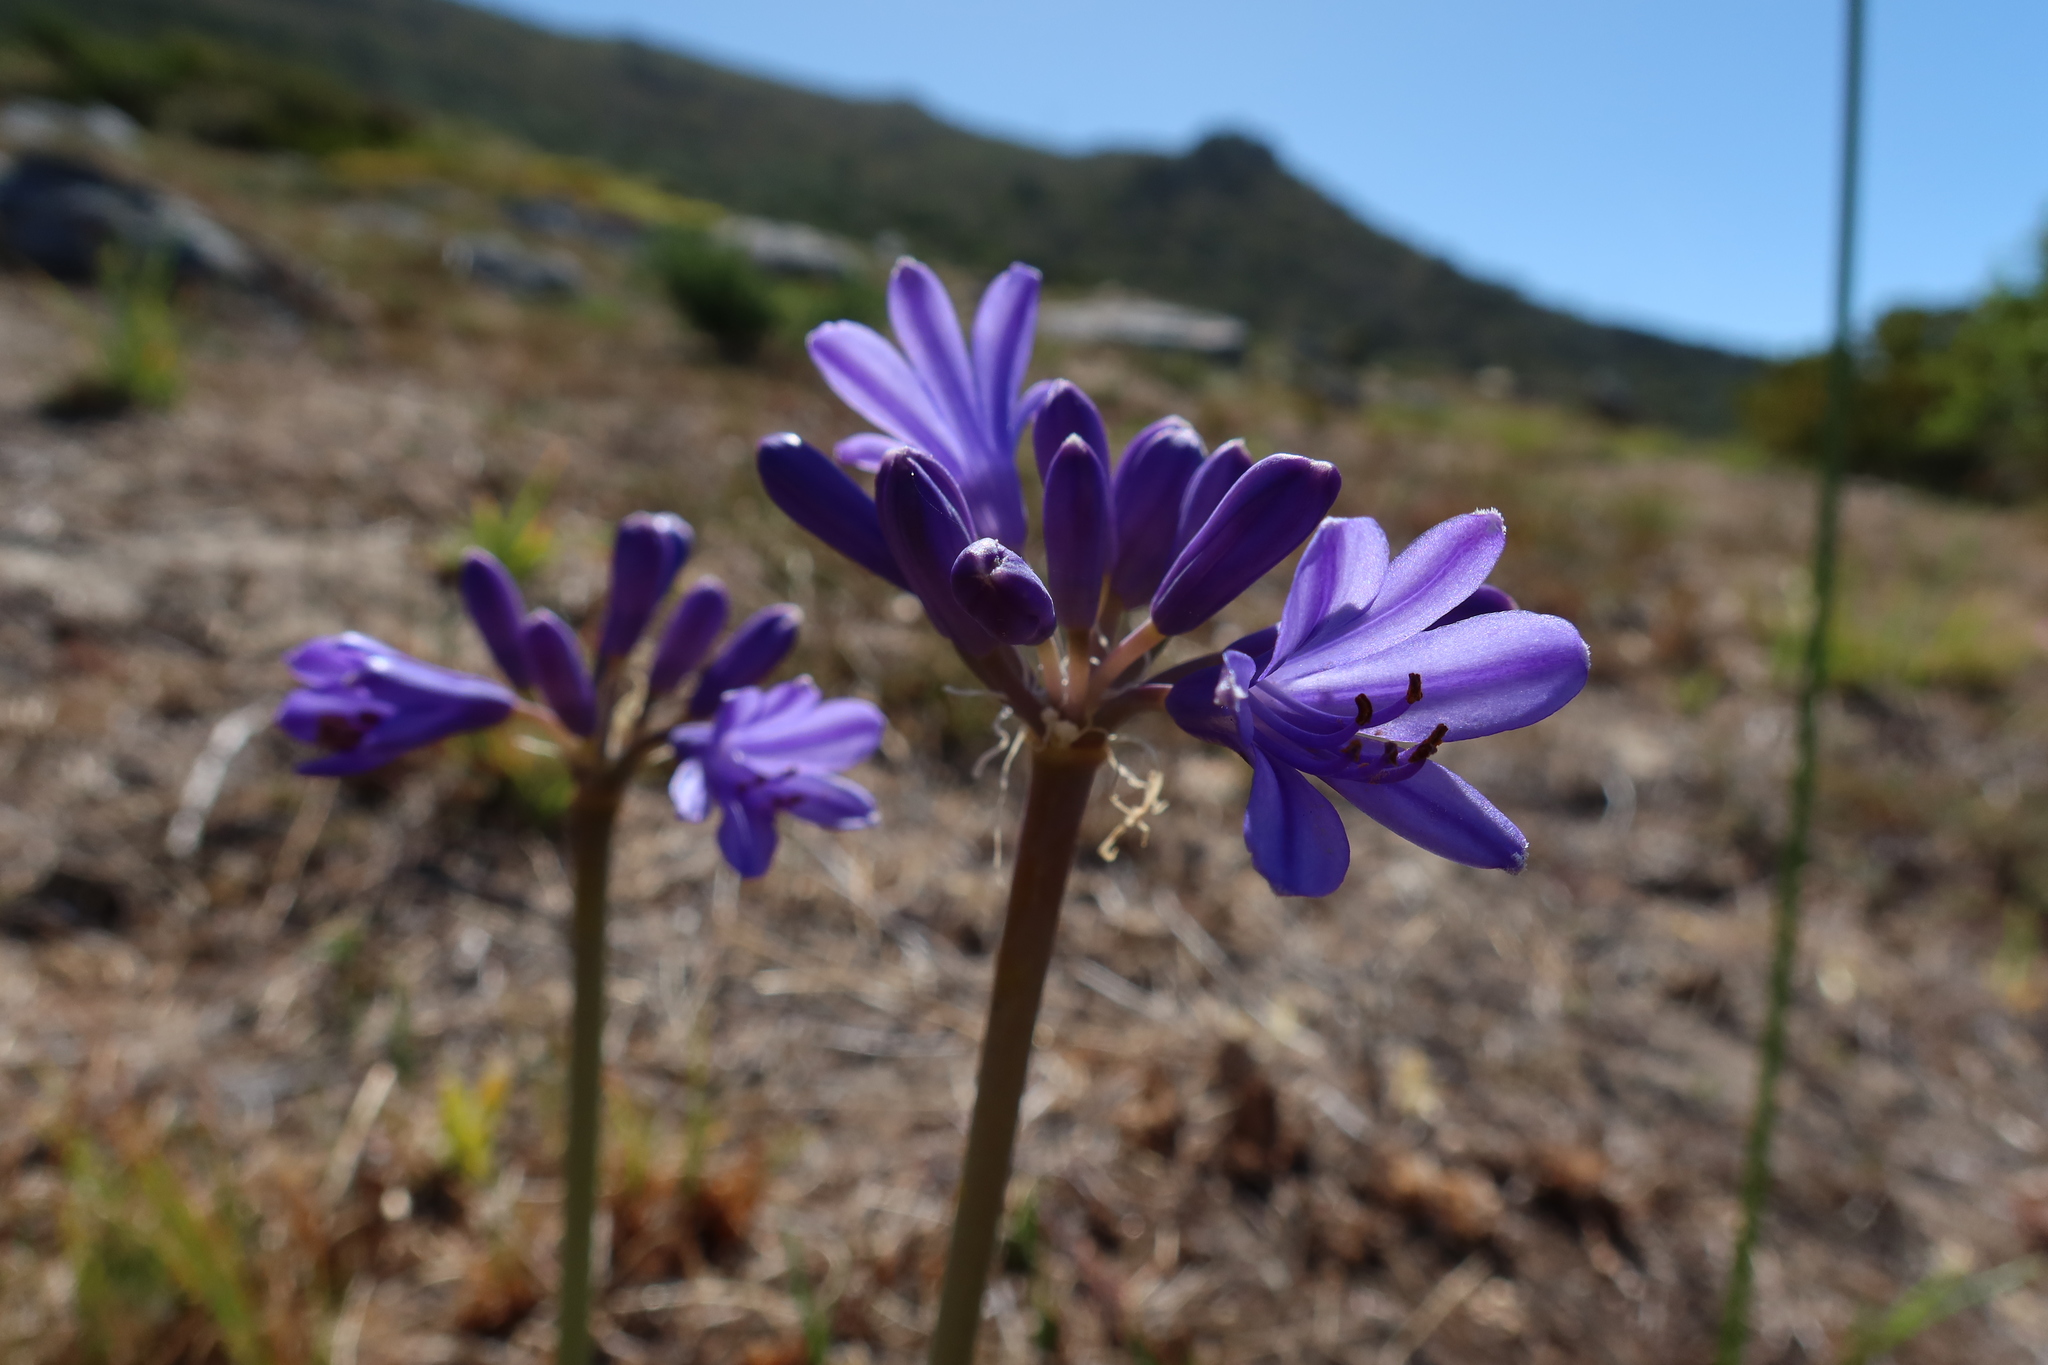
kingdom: Plantae
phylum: Tracheophyta
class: Liliopsida
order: Asparagales
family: Amaryllidaceae
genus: Agapanthus
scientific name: Agapanthus africanus
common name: Lily-of-the-nile
